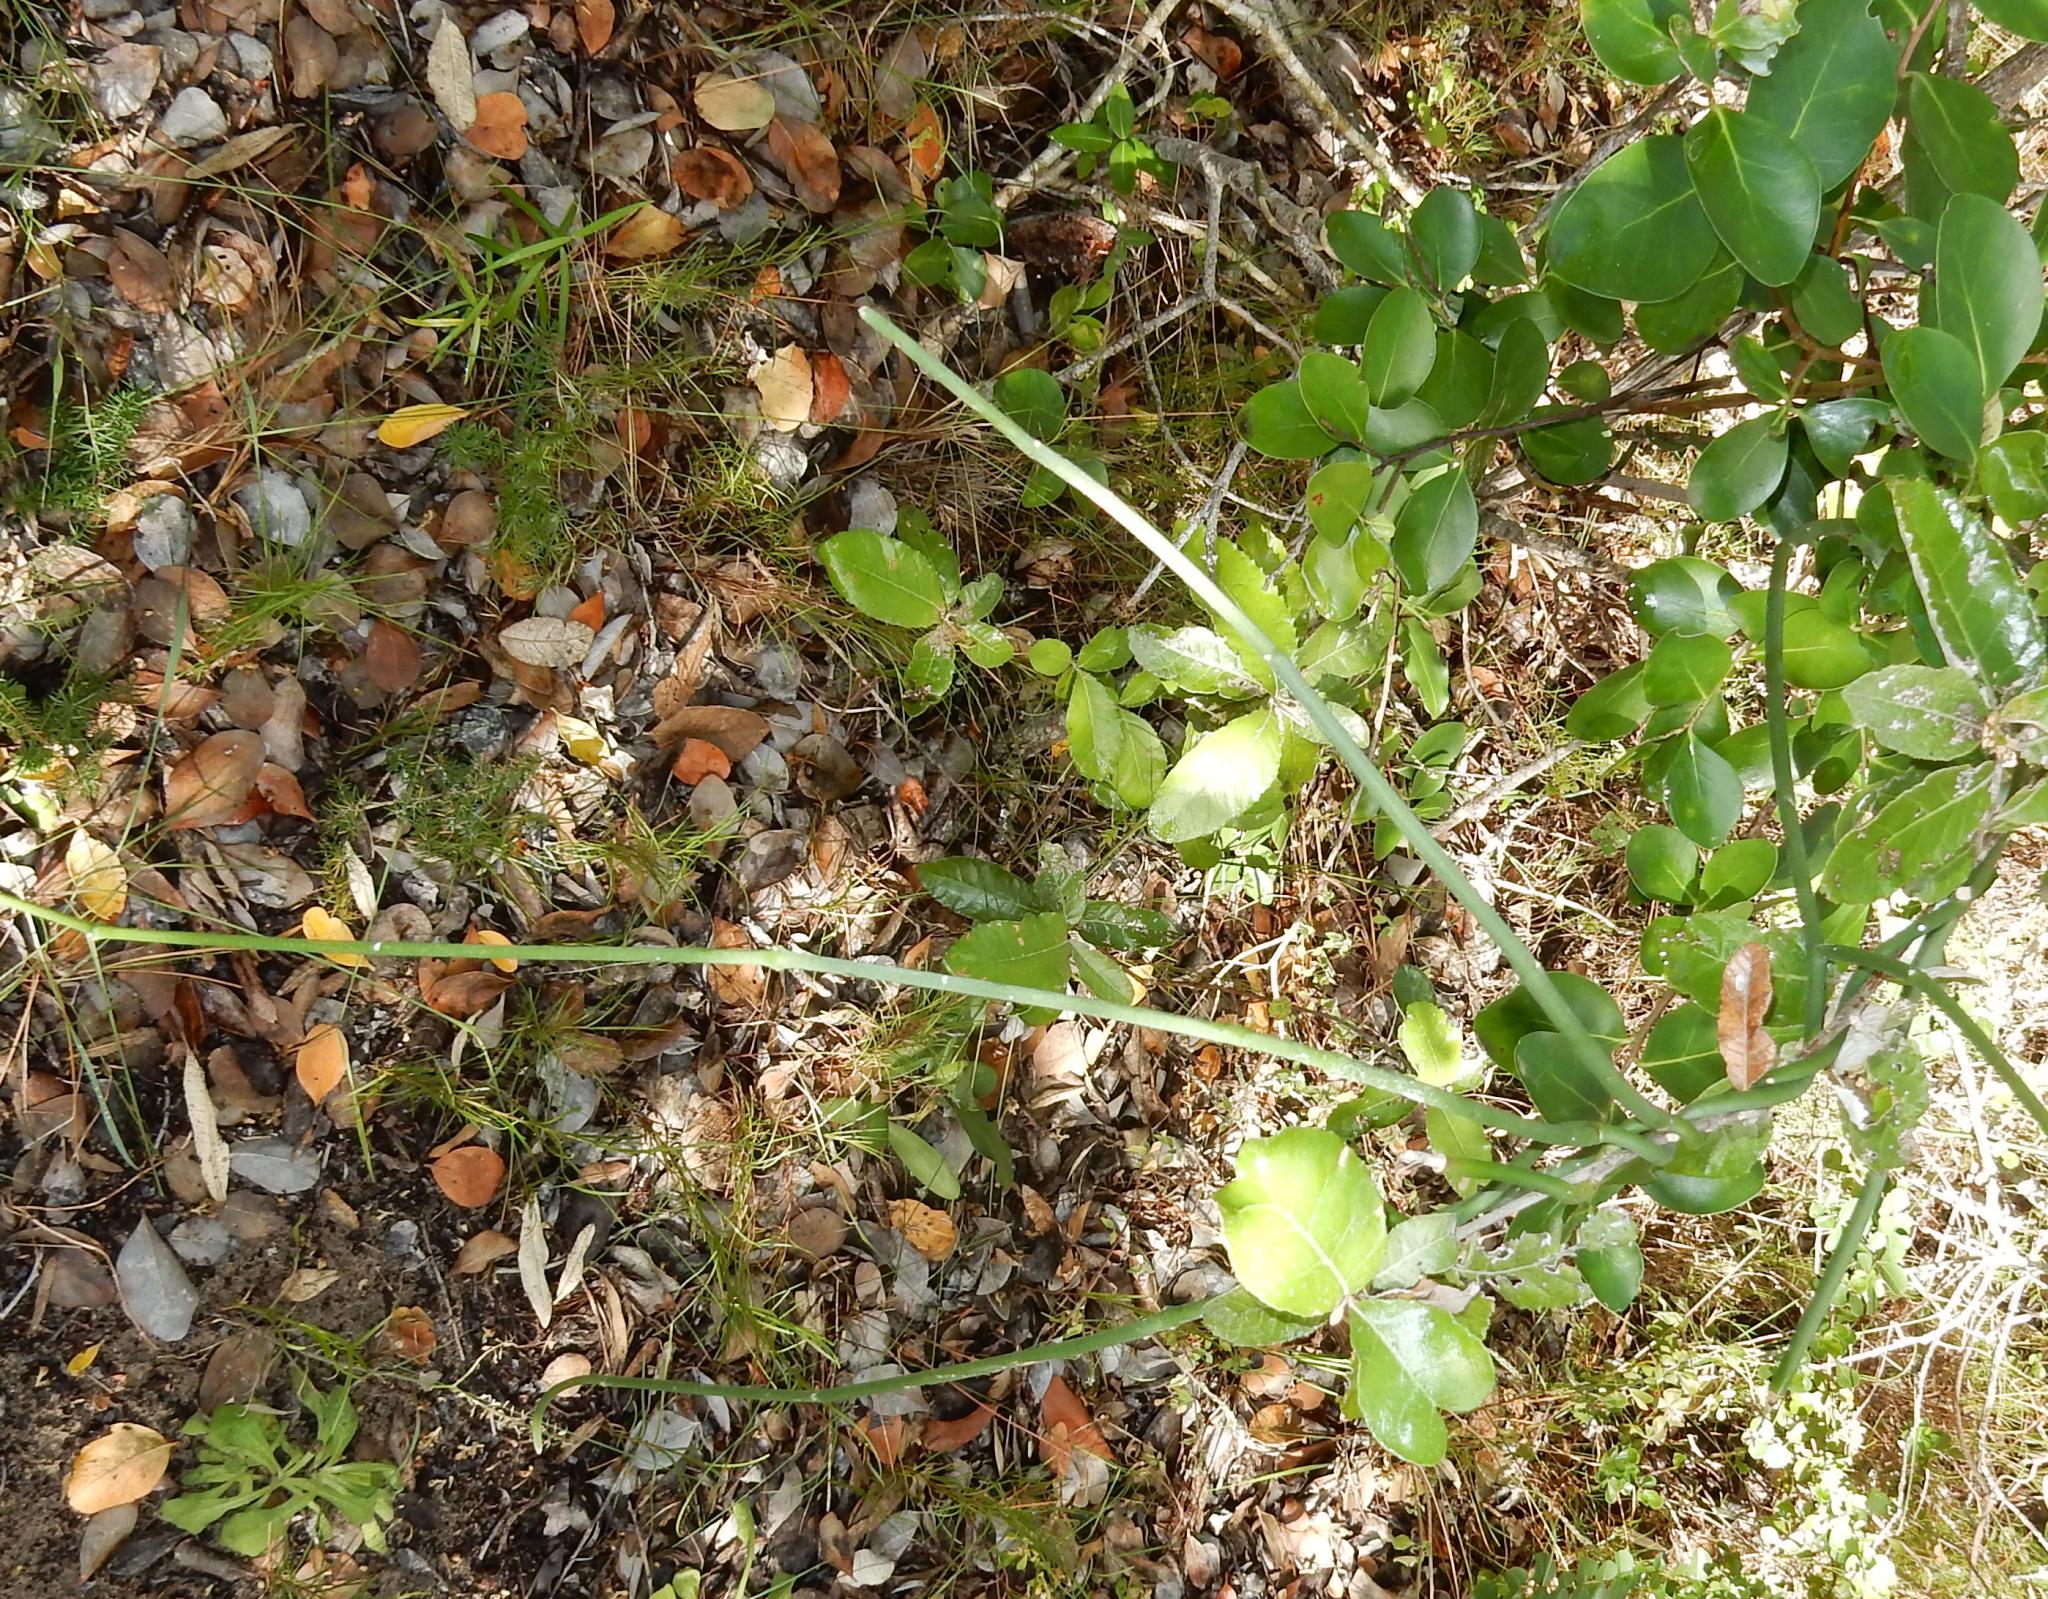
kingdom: Plantae
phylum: Tracheophyta
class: Magnoliopsida
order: Gentianales
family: Apocynaceae
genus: Cynanchum
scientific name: Cynanchum viminale
